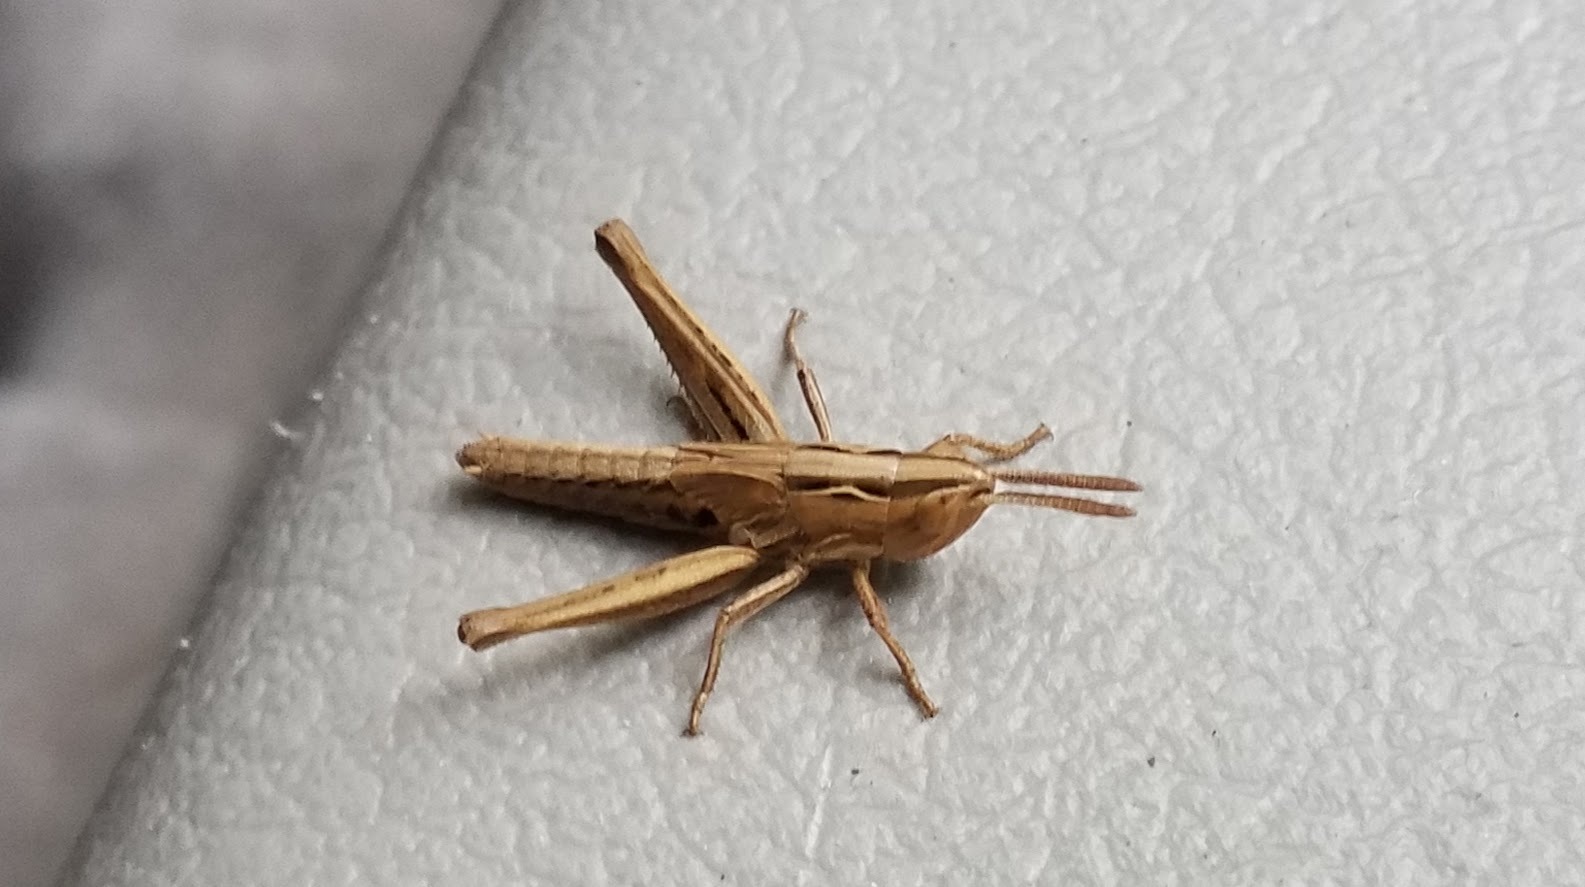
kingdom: Animalia
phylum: Arthropoda
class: Insecta
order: Orthoptera
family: Acrididae
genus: Eritettix
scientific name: Eritettix simplex
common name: Velvet-striped grasshopper
